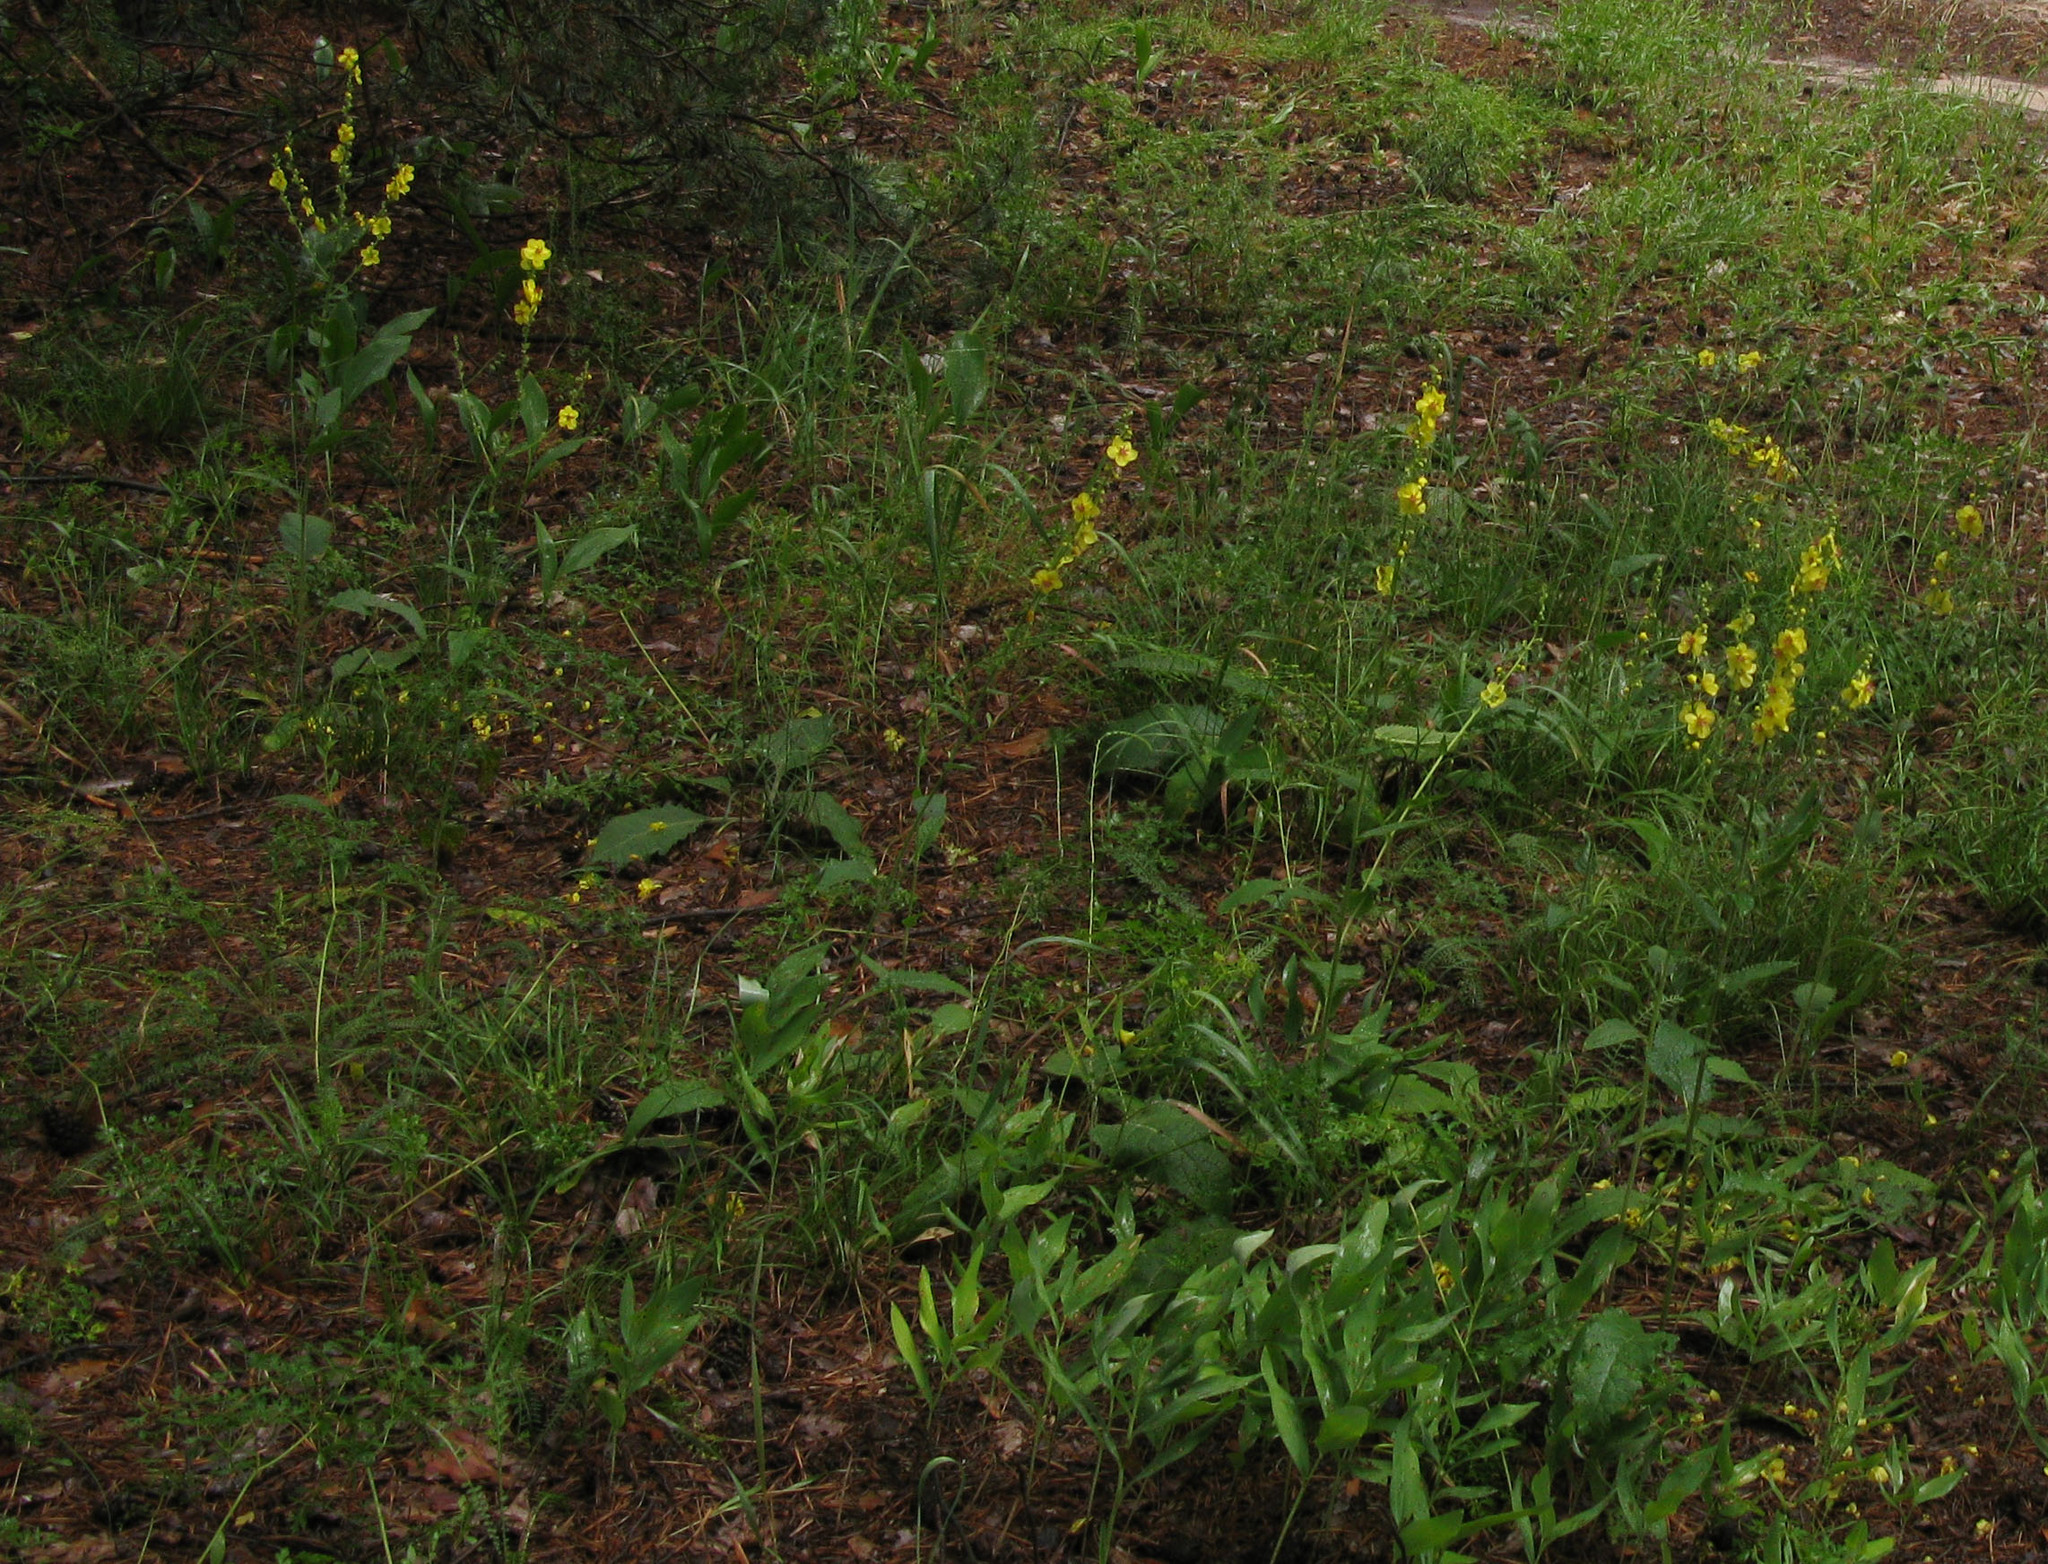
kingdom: Plantae
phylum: Tracheophyta
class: Magnoliopsida
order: Lamiales
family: Scrophulariaceae
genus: Verbascum
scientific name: Verbascum chaixii
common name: Nettle-leaved mullein
